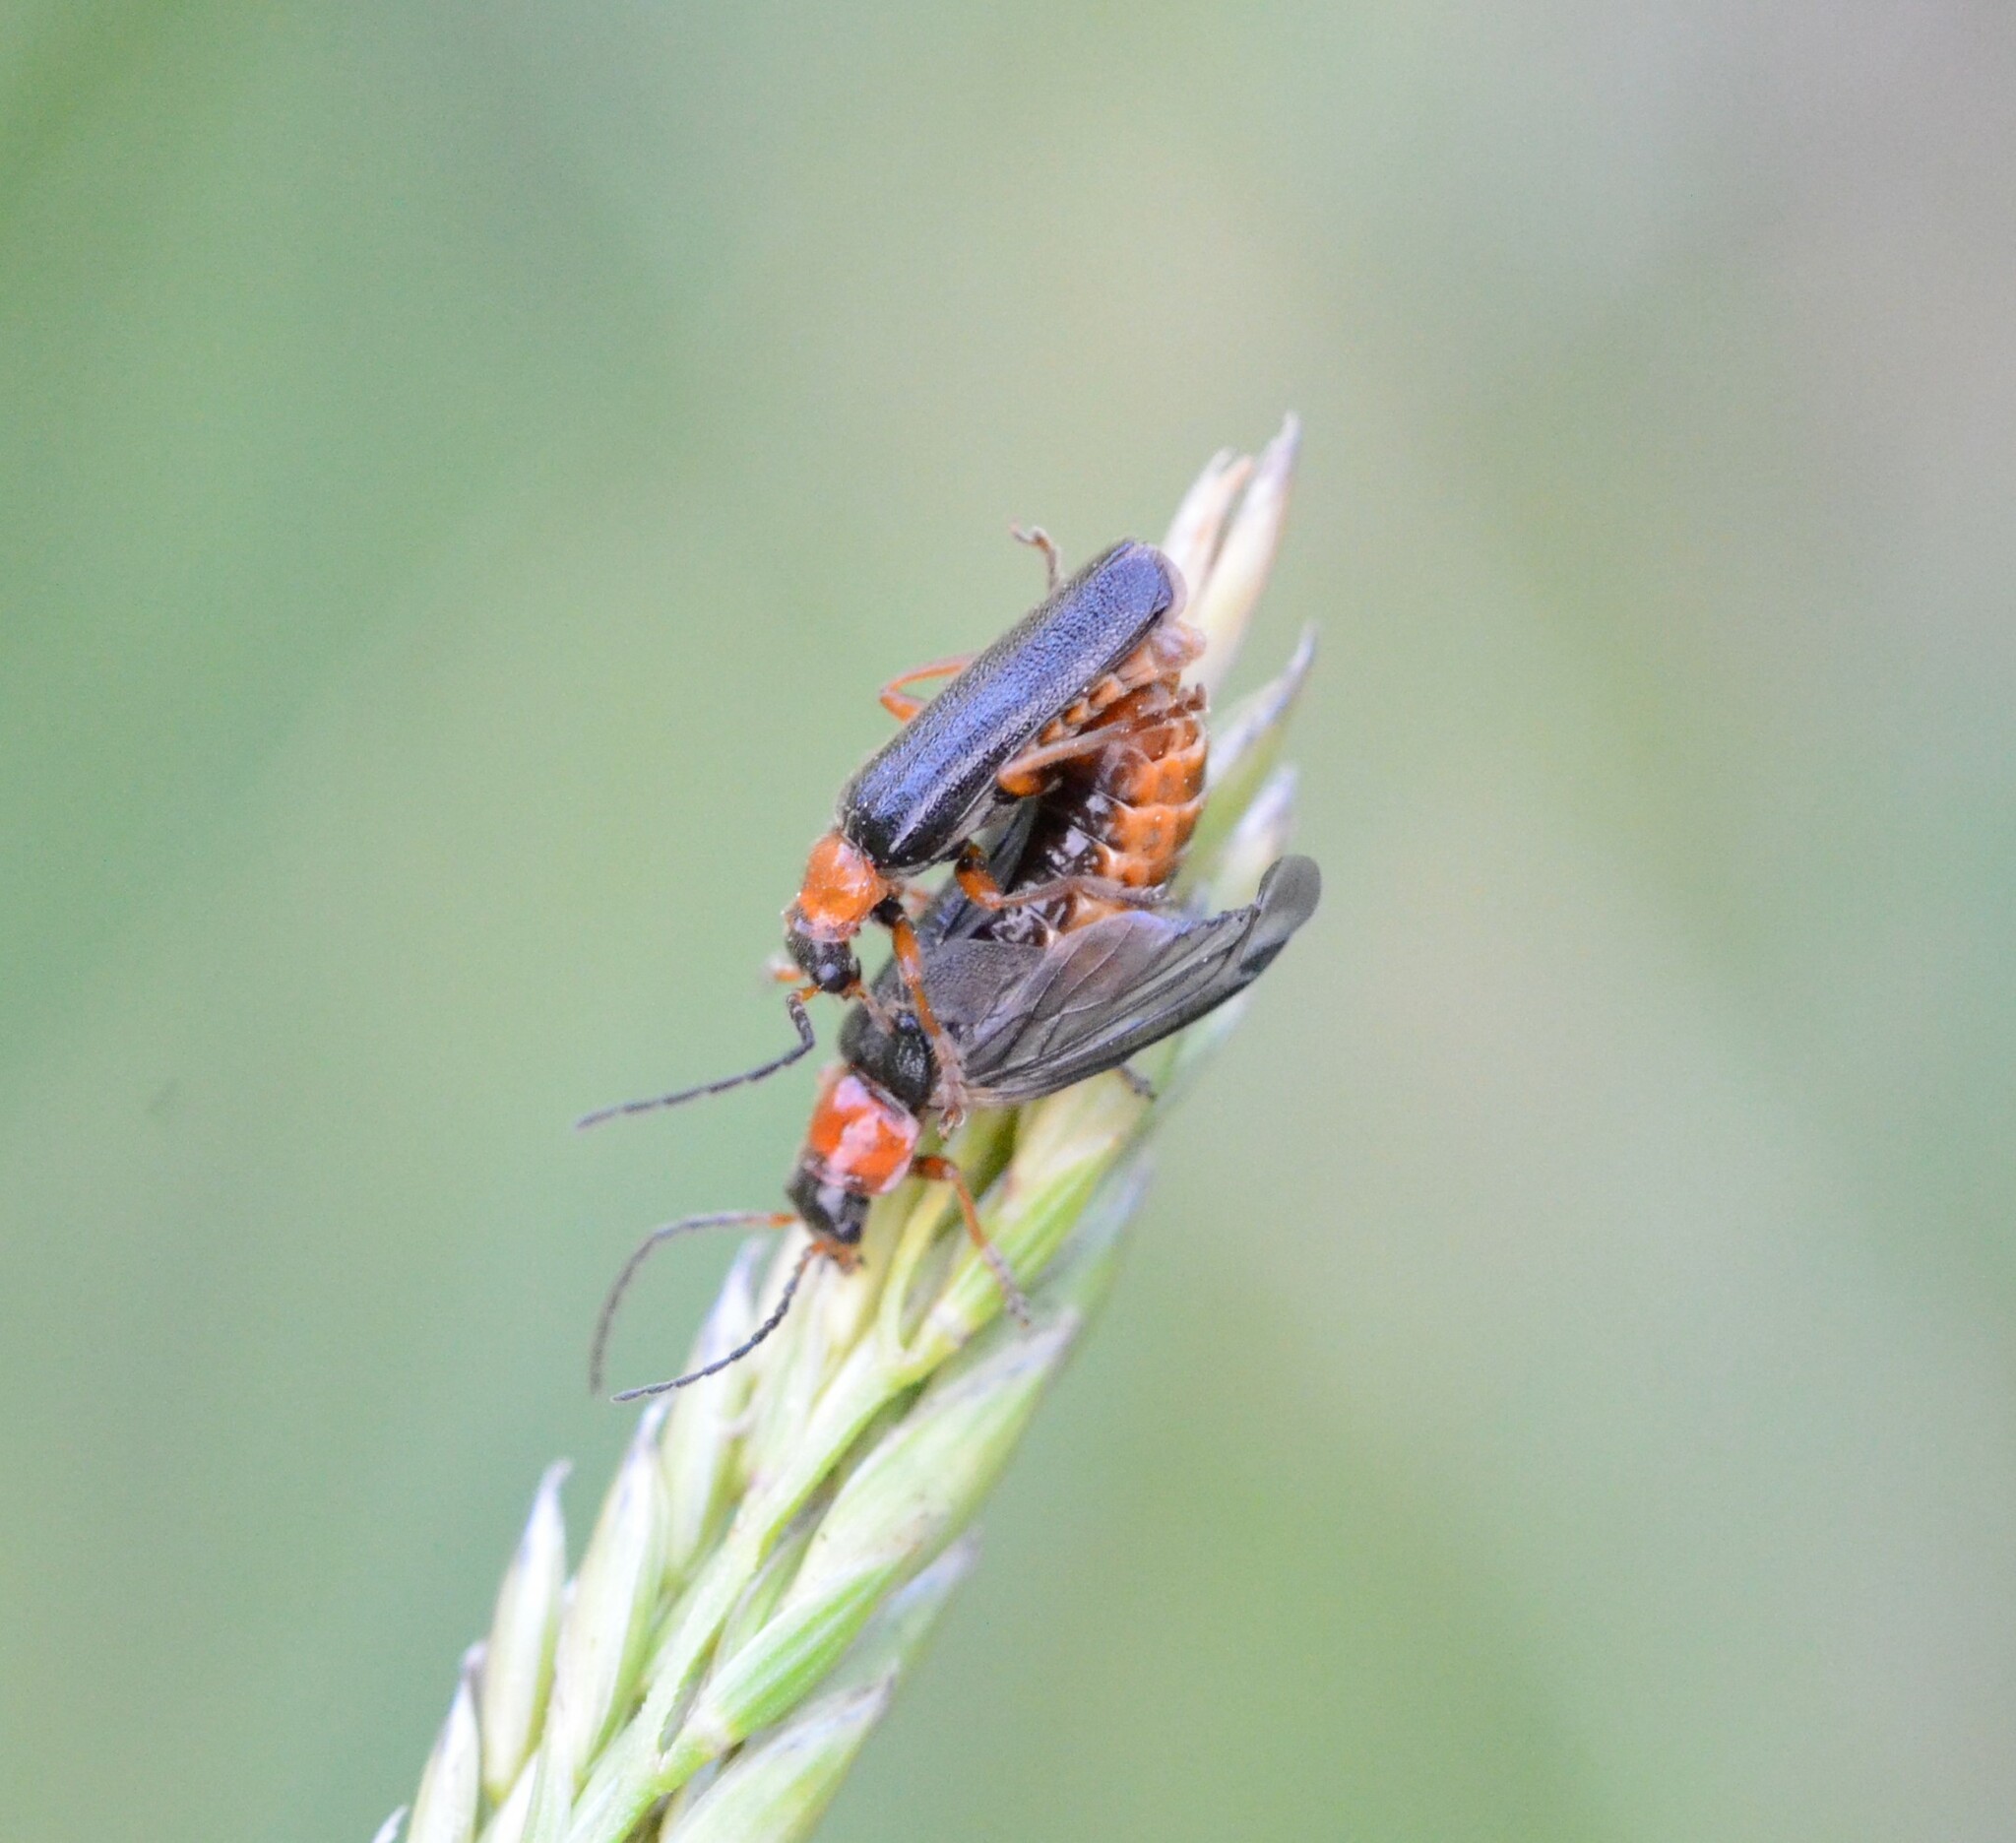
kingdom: Animalia
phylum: Arthropoda
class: Insecta
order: Coleoptera
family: Cantharidae
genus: Cantharis
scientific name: Cantharis flavilabris
